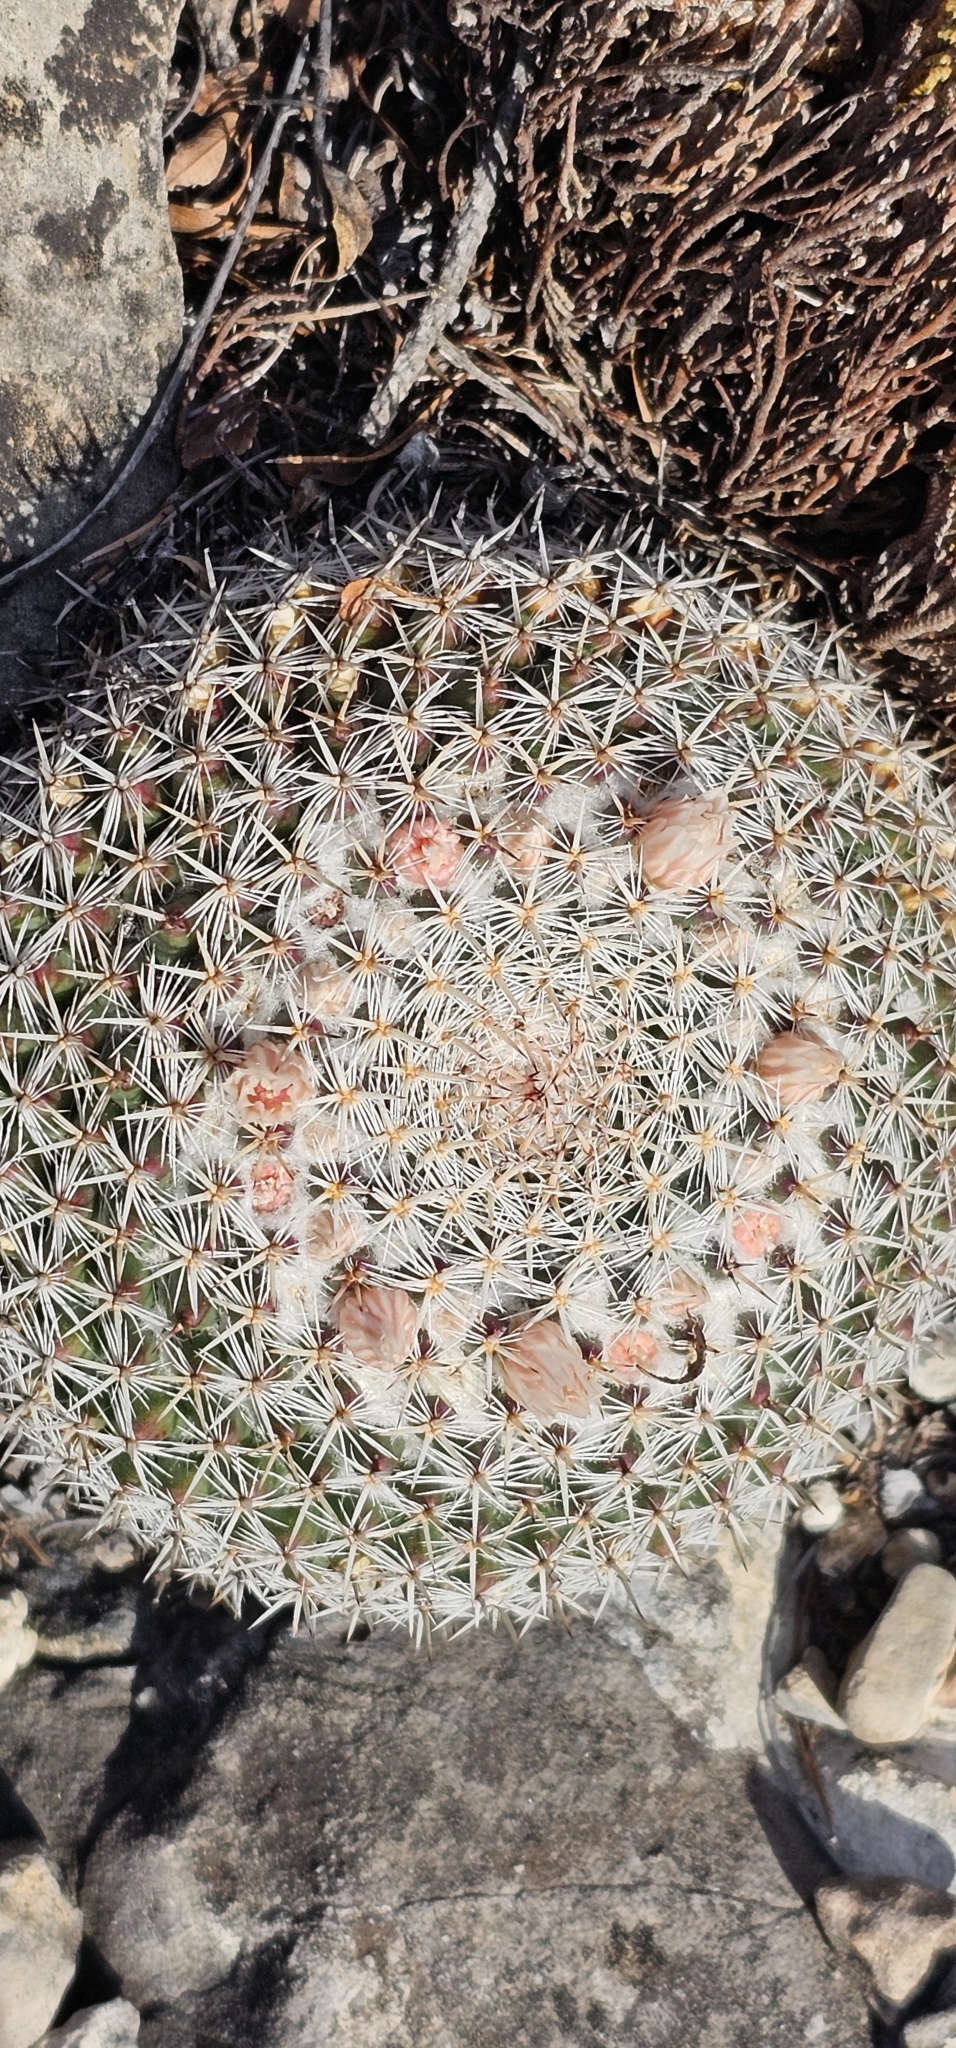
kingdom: Plantae
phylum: Tracheophyta
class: Magnoliopsida
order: Caryophyllales
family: Cactaceae
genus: Mammillaria
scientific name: Mammillaria formosa
